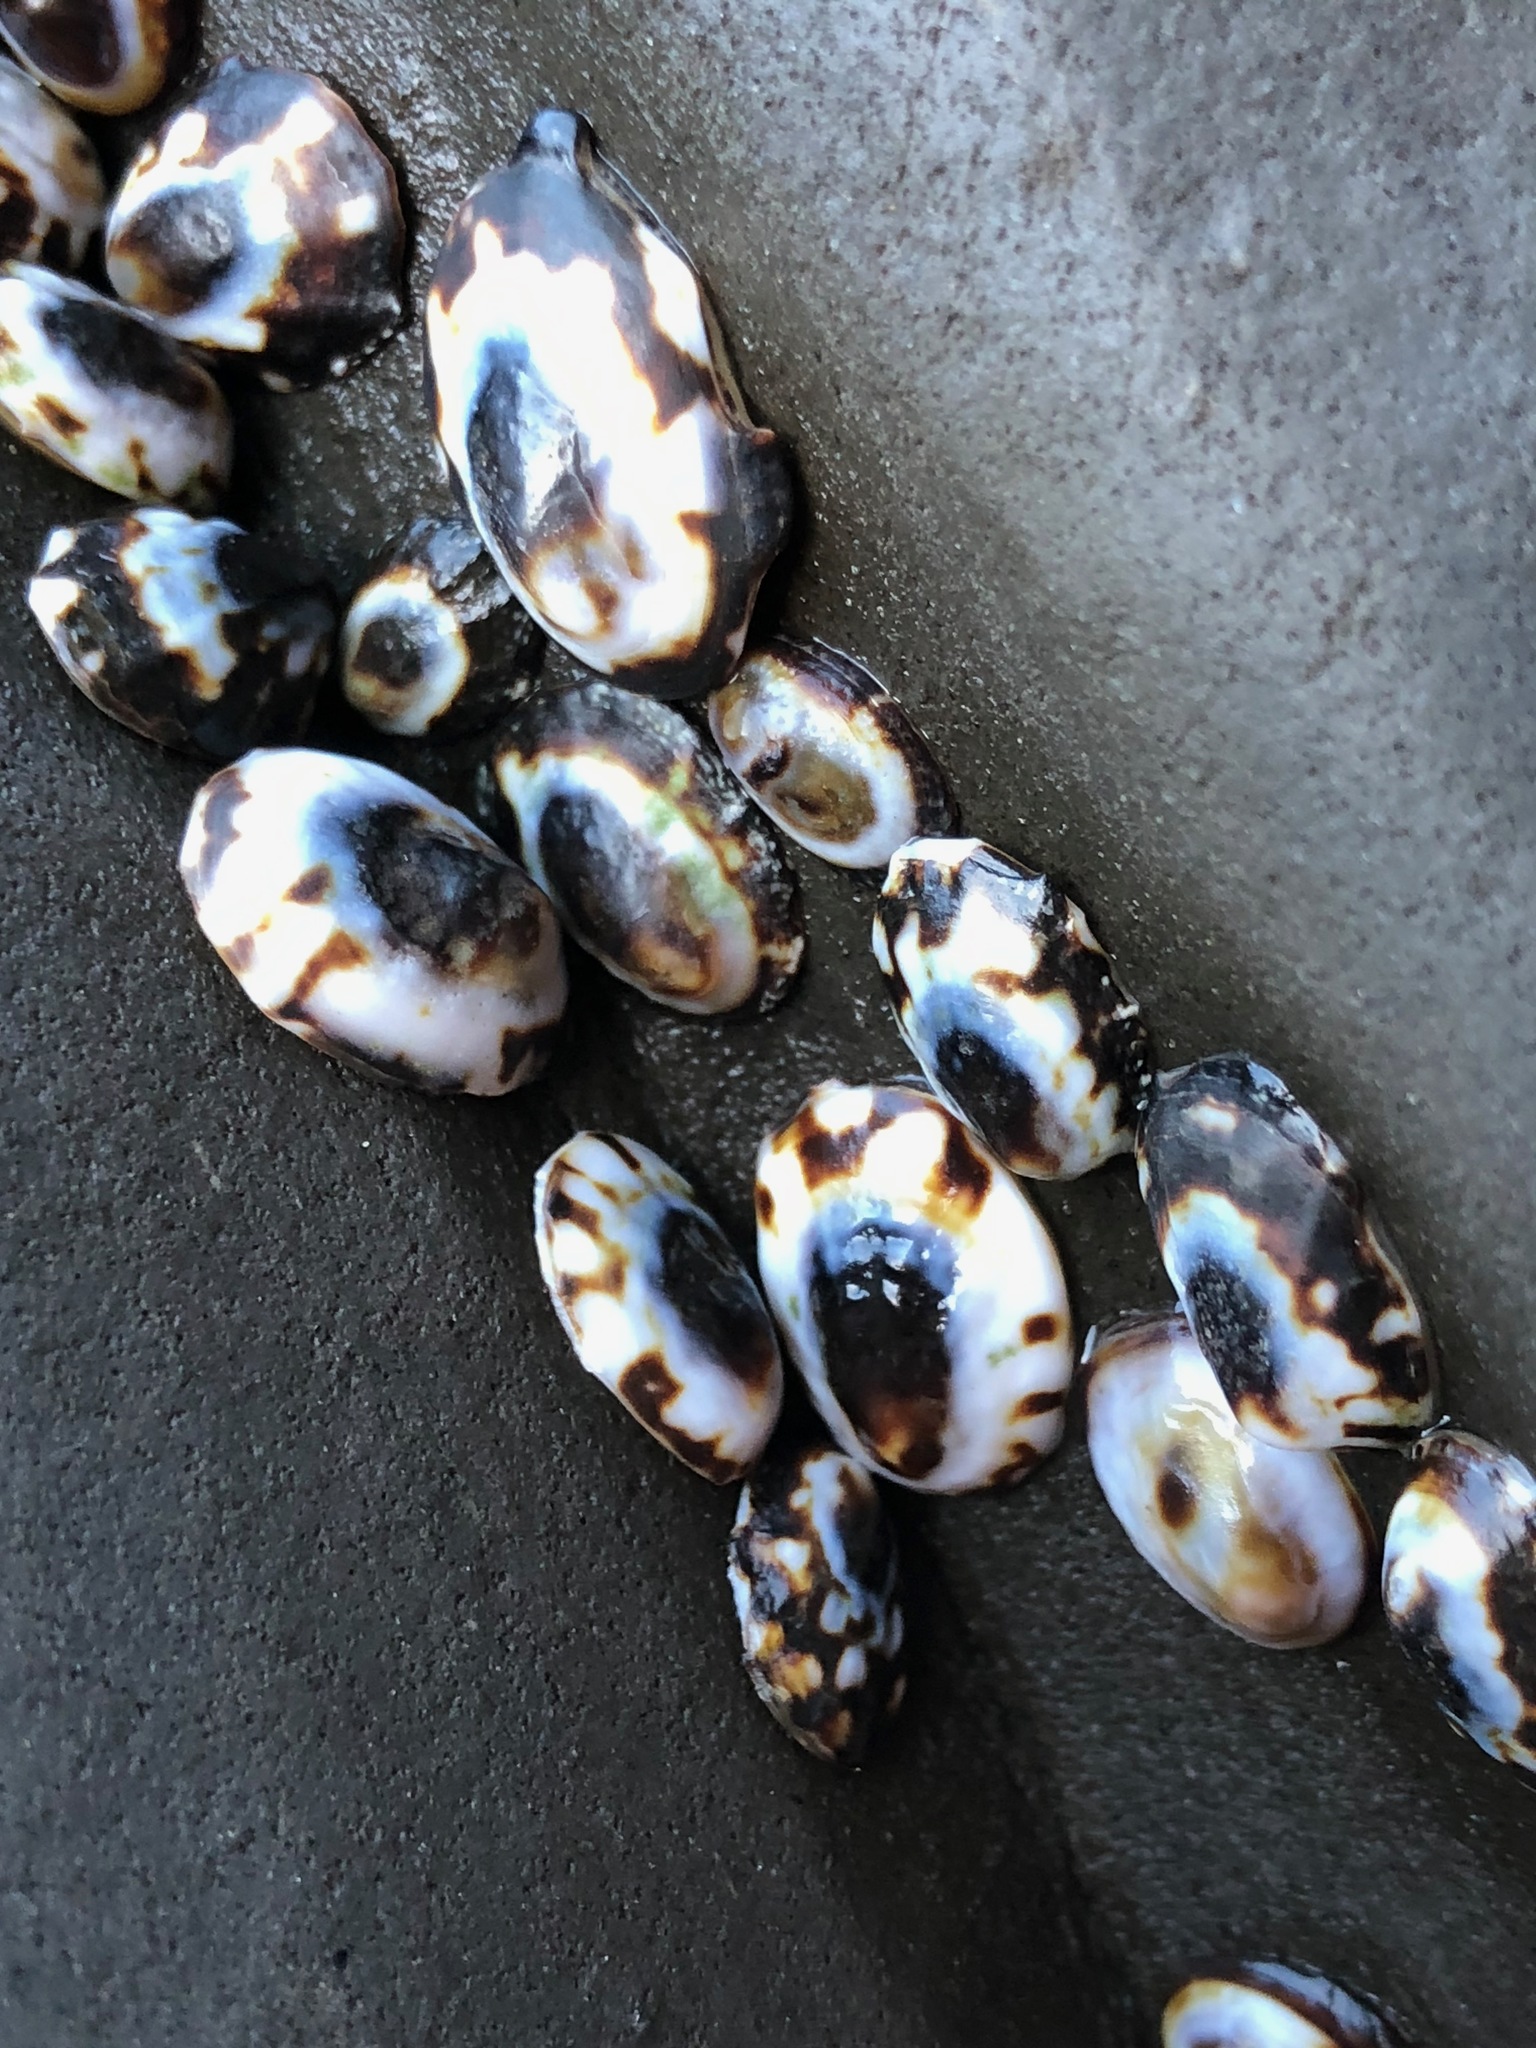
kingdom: Animalia
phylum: Mollusca
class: Gastropoda
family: Lottiidae
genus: Lottia
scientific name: Lottia
